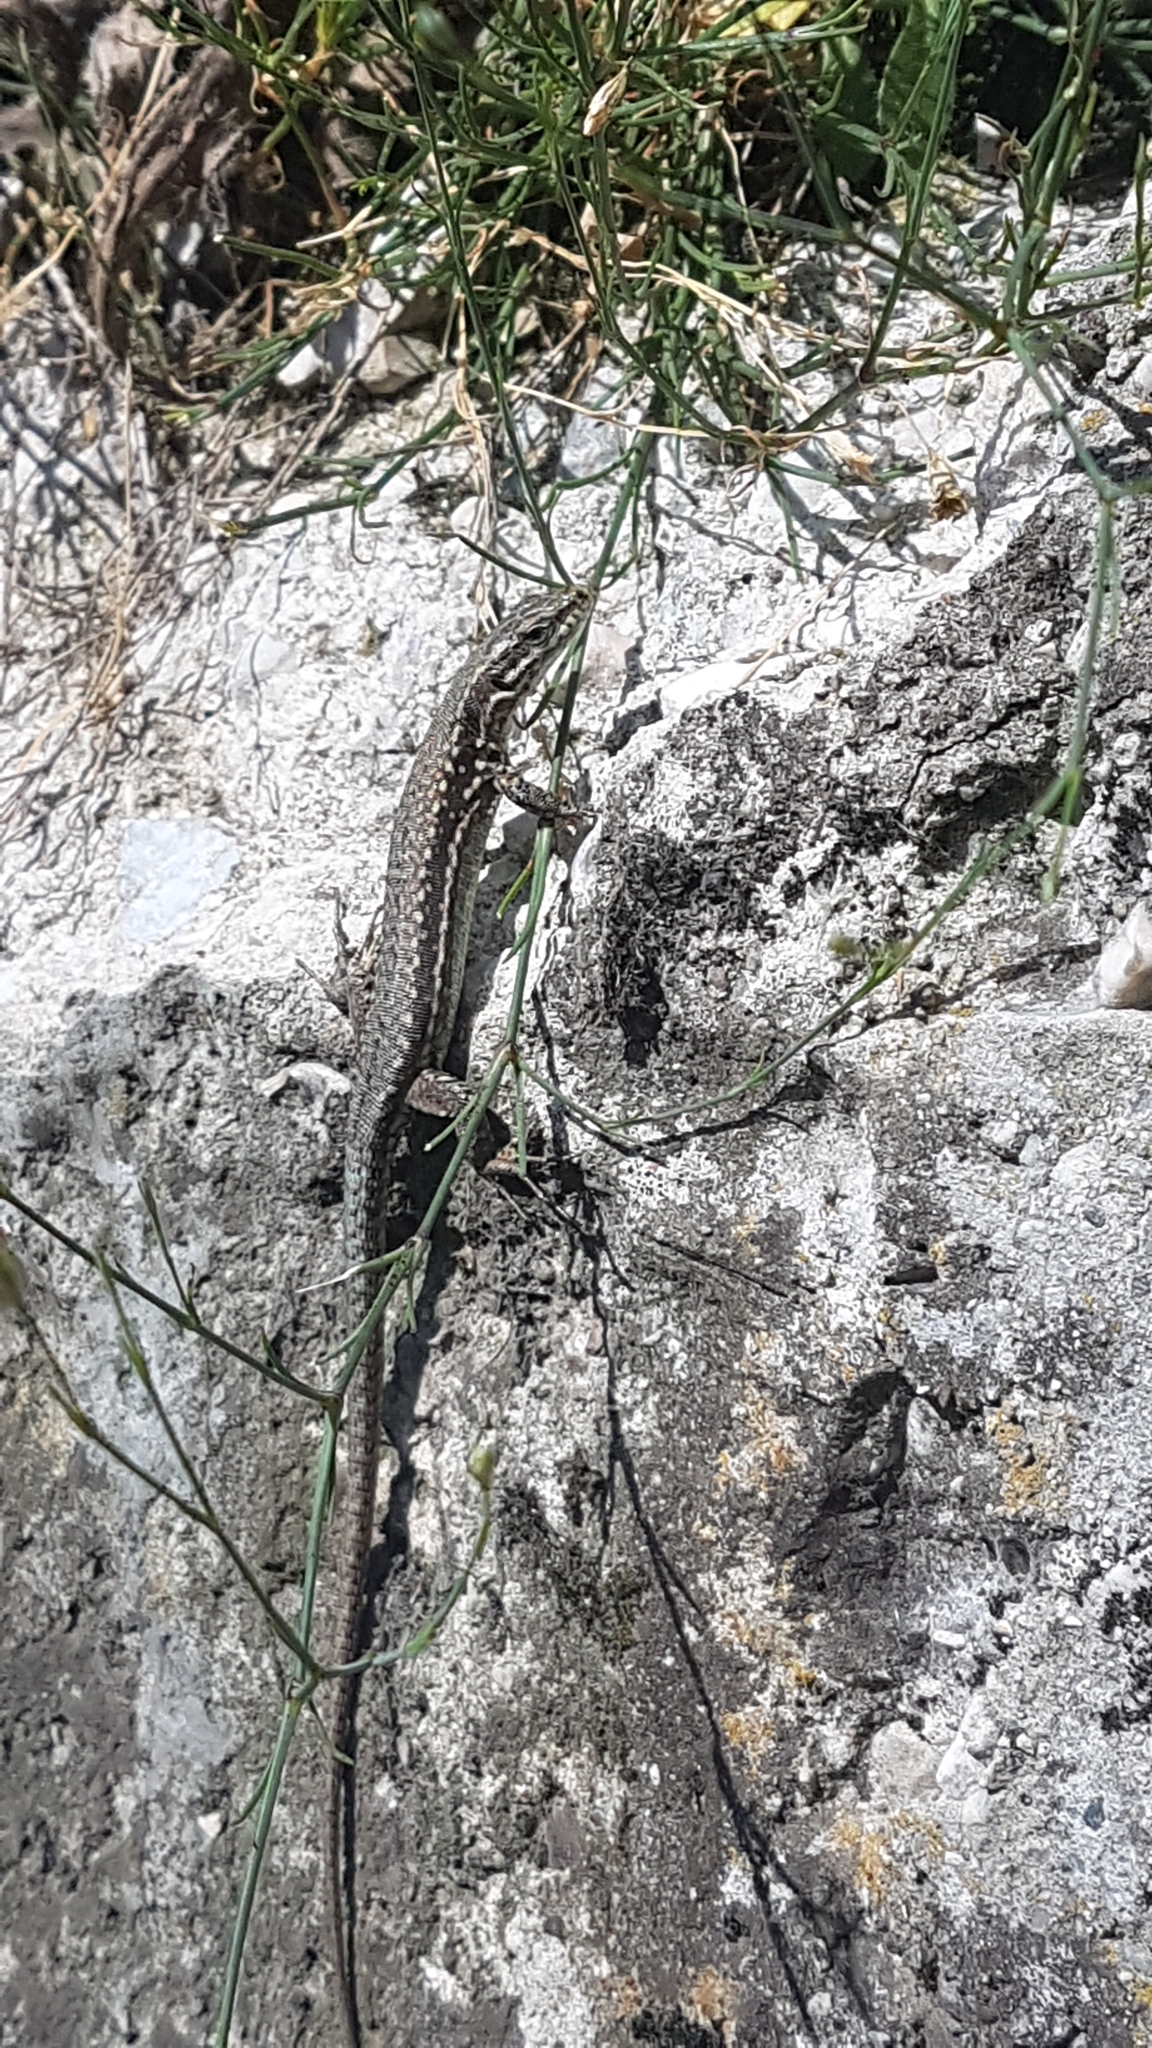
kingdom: Animalia
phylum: Chordata
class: Squamata
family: Lacertidae
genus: Podarcis
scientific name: Podarcis muralis
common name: Common wall lizard
